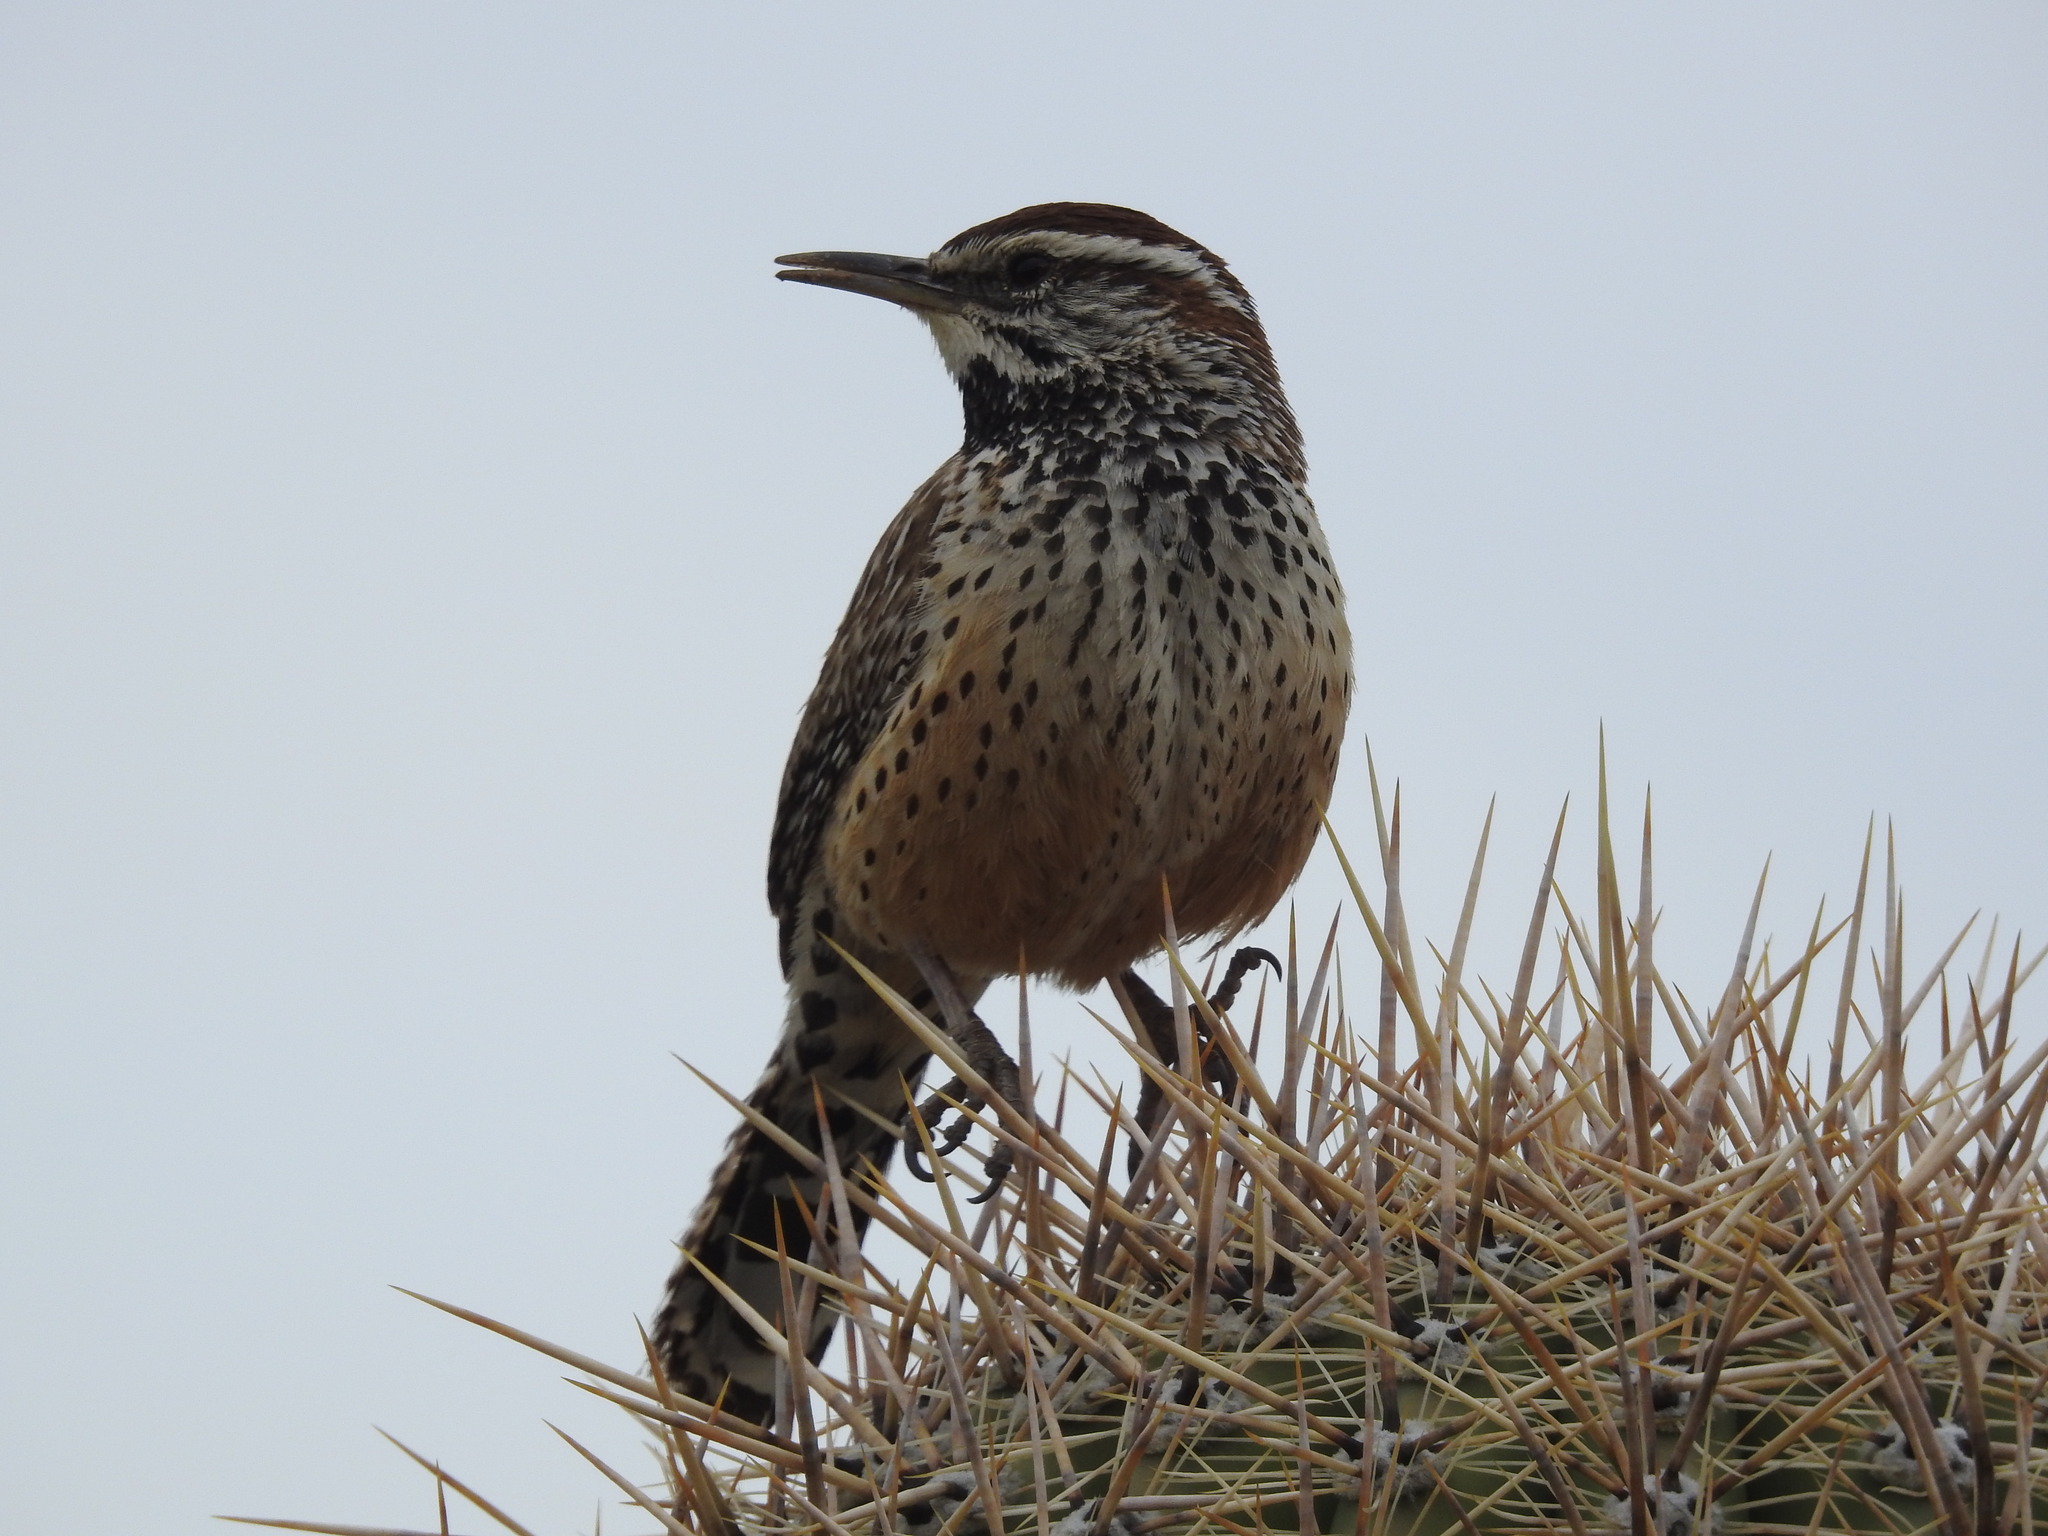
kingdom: Animalia
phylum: Chordata
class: Aves
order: Passeriformes
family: Troglodytidae
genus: Campylorhynchus
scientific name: Campylorhynchus brunneicapillus
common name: Cactus wren
